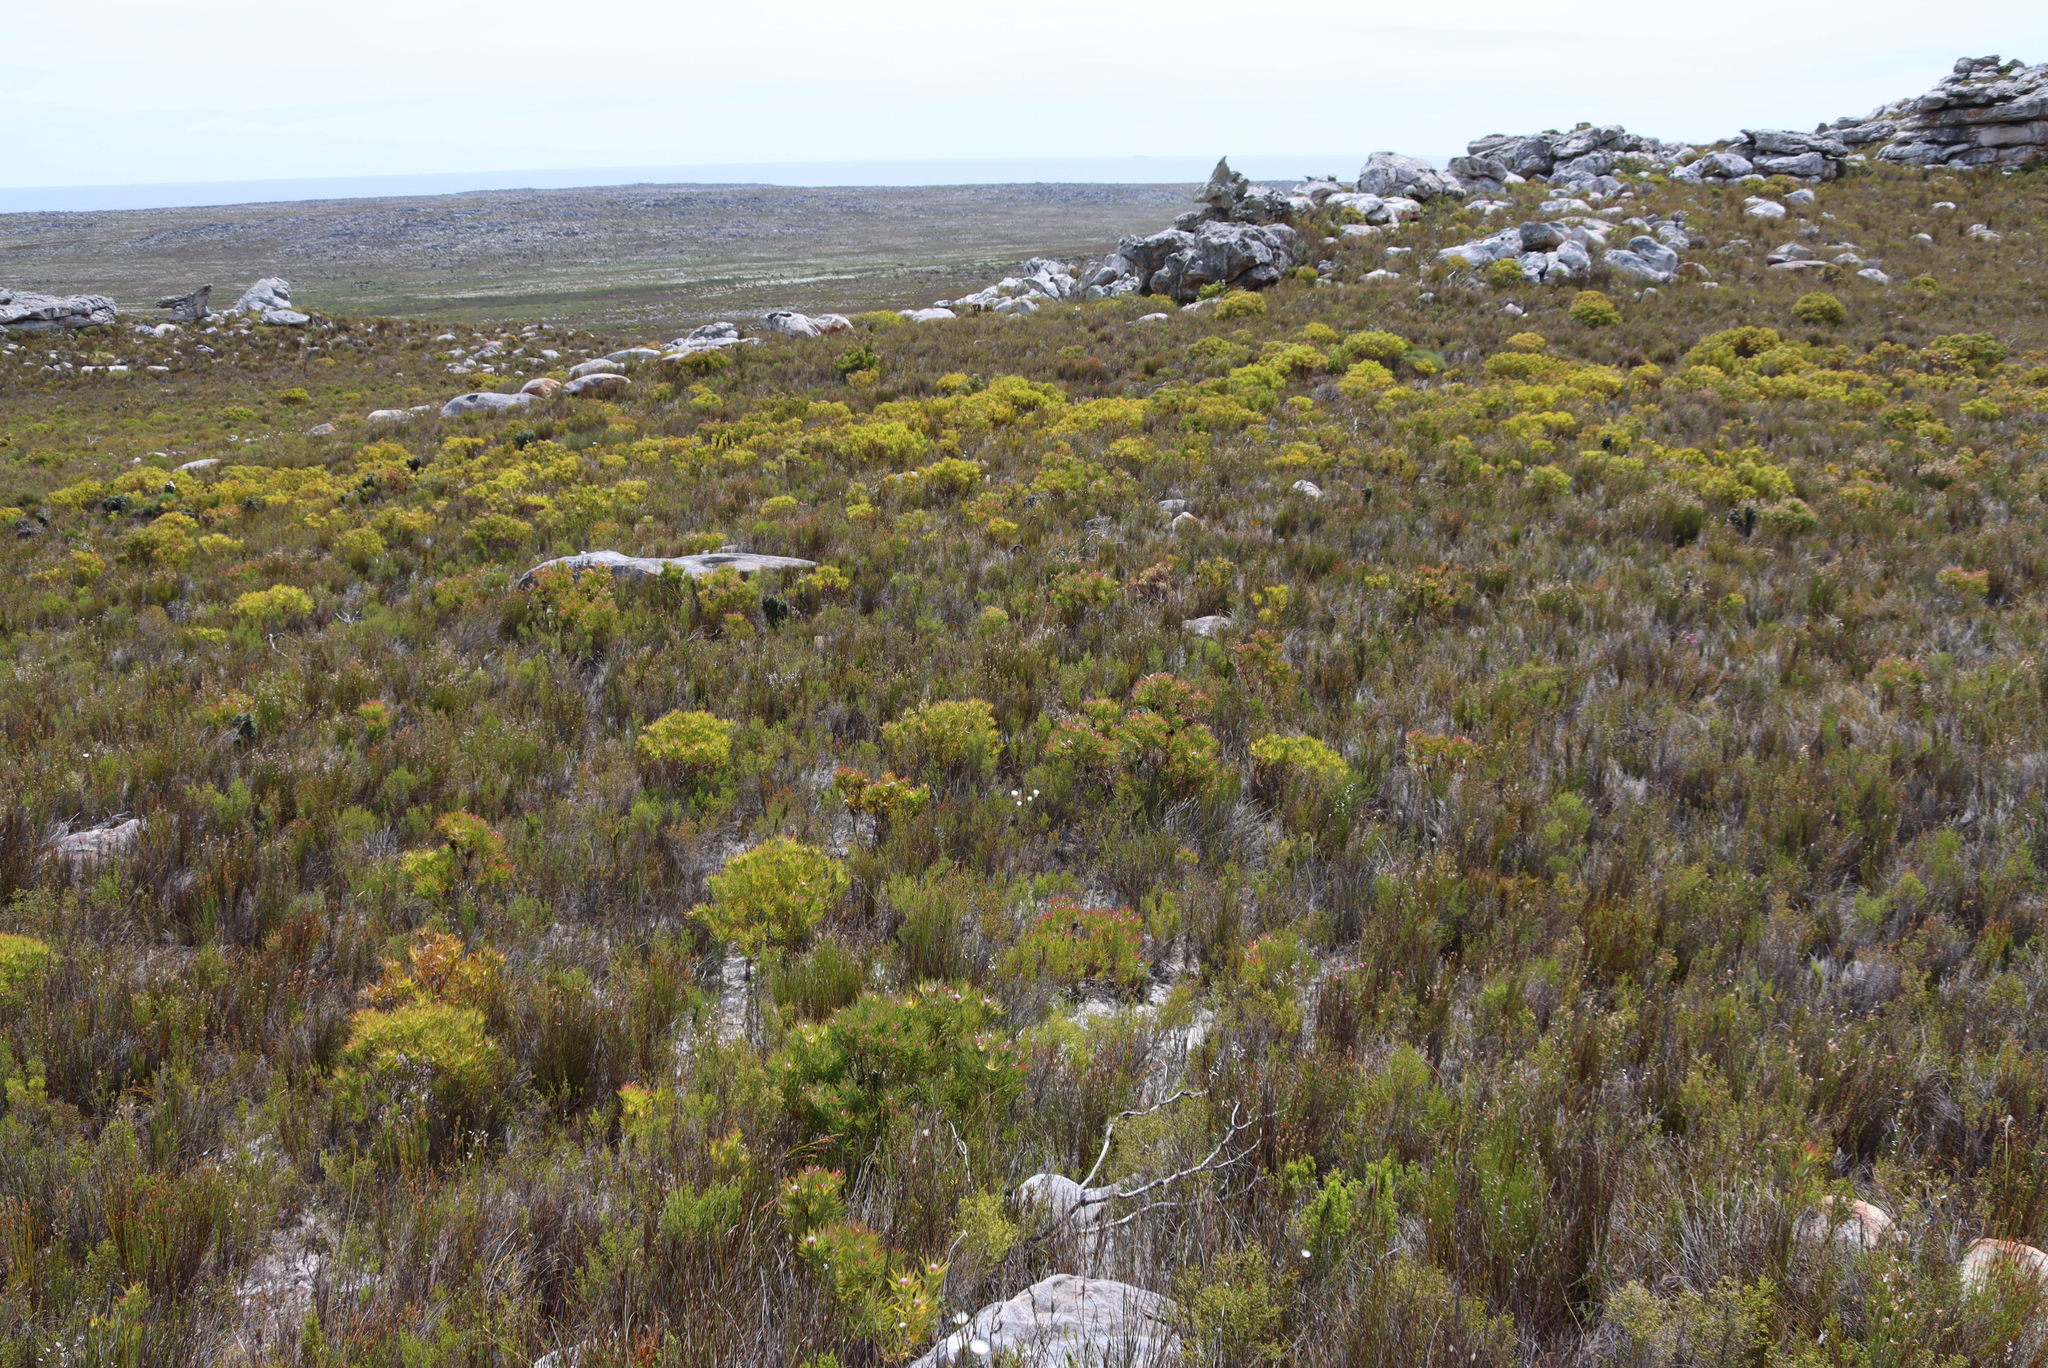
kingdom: Plantae
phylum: Tracheophyta
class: Magnoliopsida
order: Proteales
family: Proteaceae
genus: Leucadendron
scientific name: Leucadendron xanthoconus
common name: Sickle-leaf conebush
